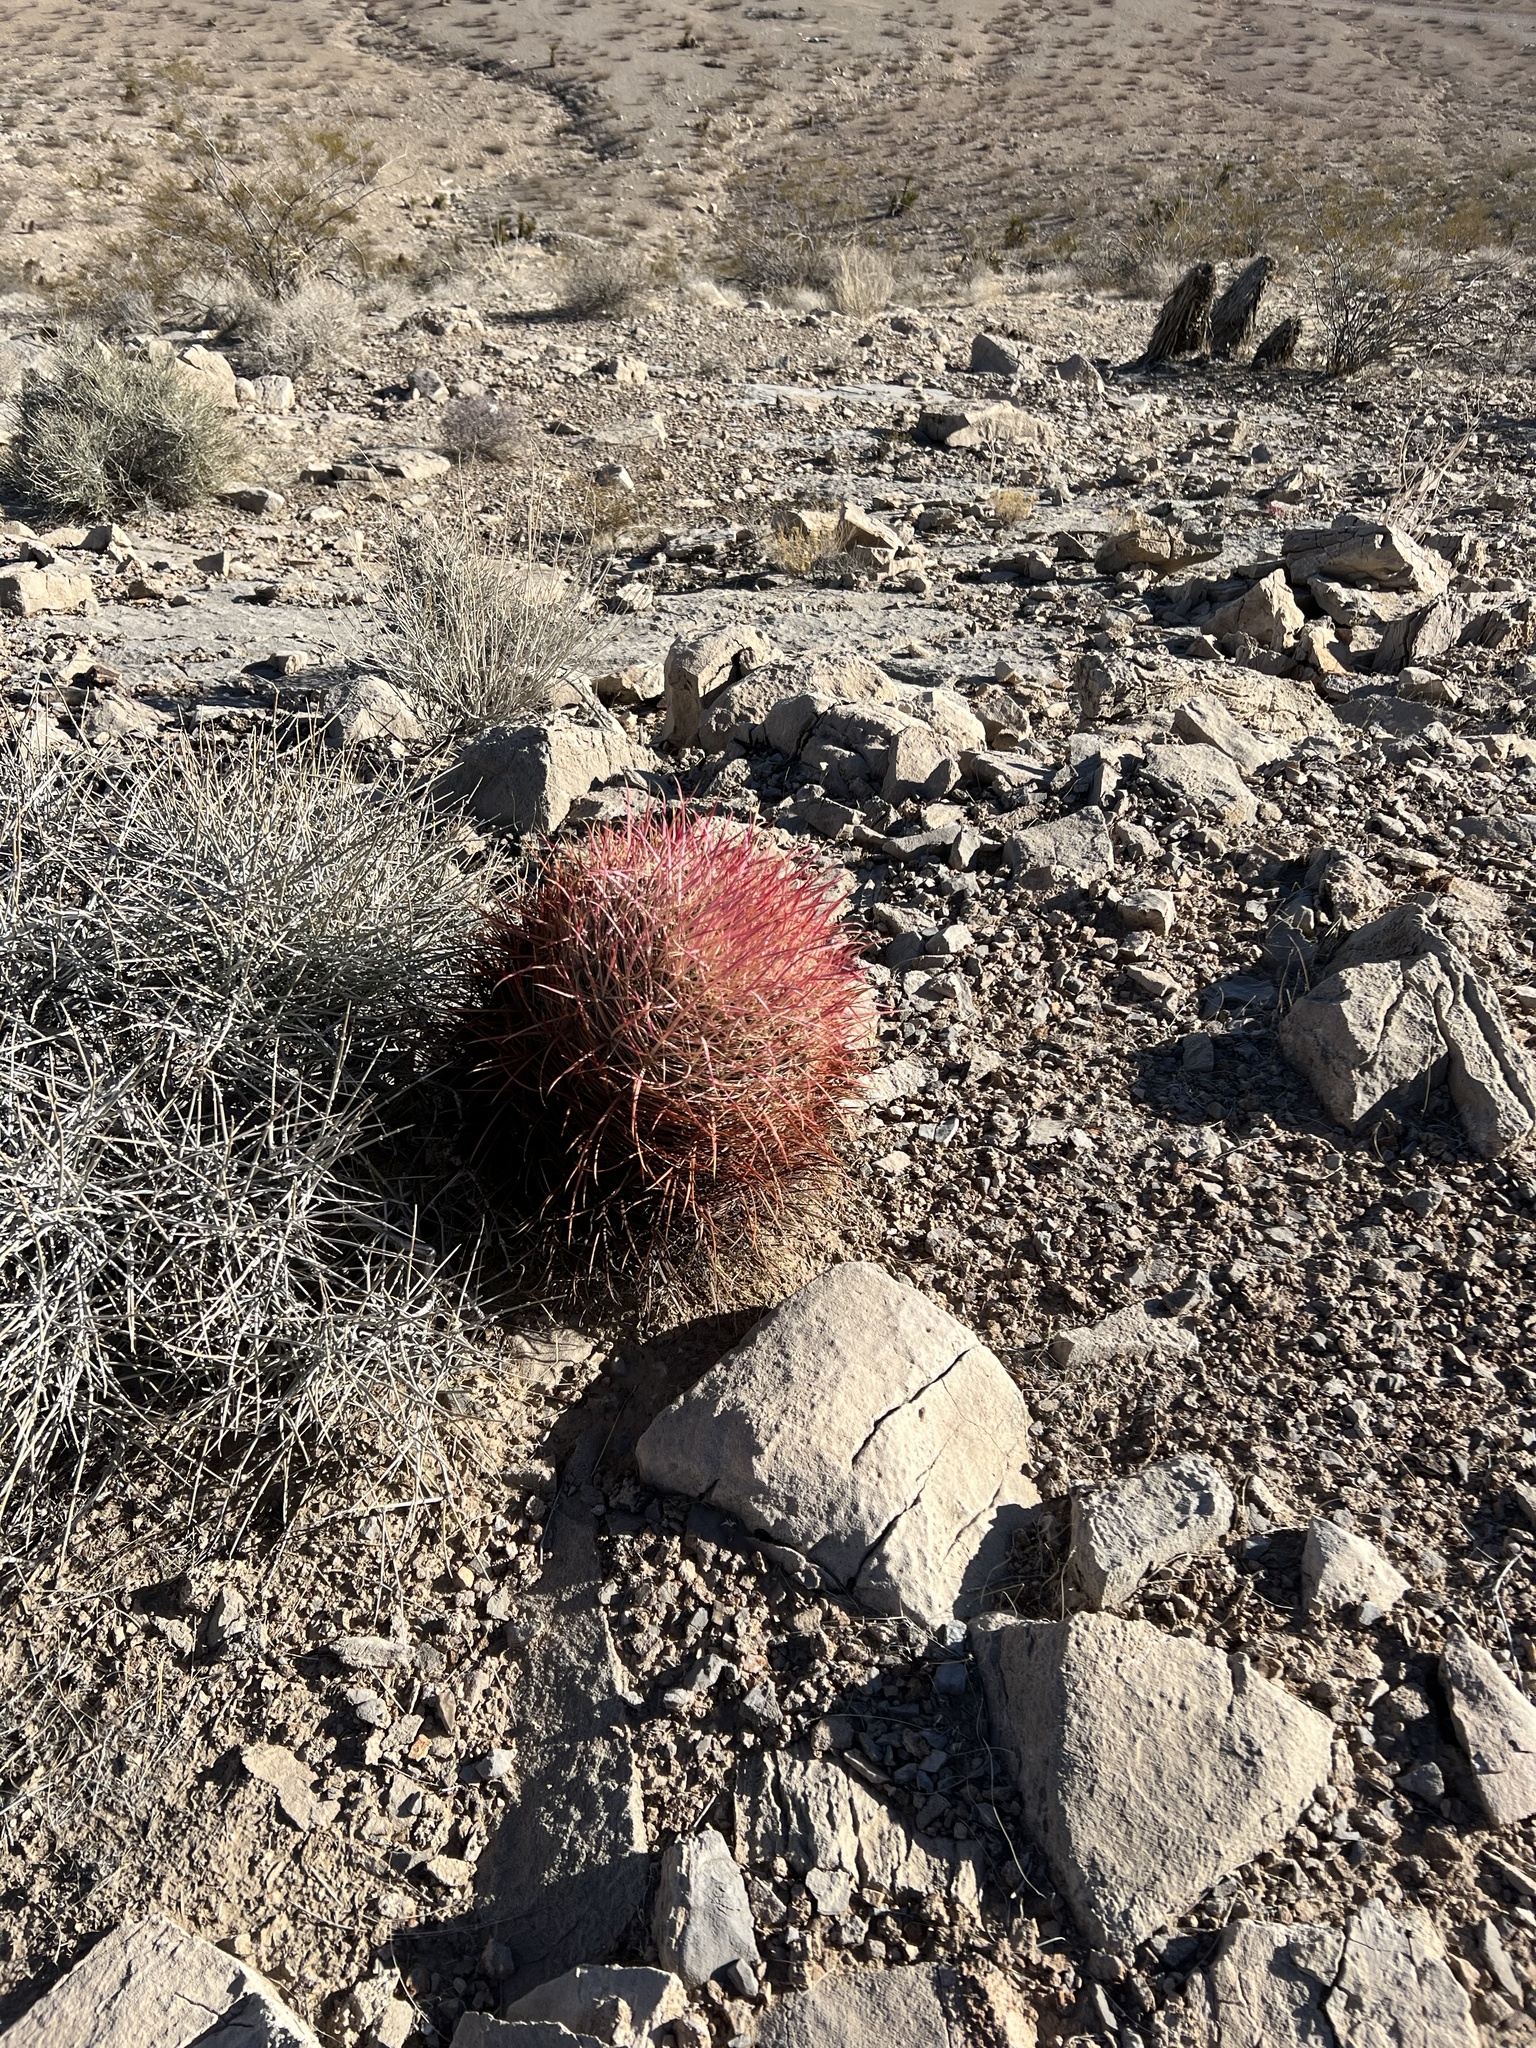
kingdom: Plantae
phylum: Tracheophyta
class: Magnoliopsida
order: Caryophyllales
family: Cactaceae
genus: Ferocactus
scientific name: Ferocactus cylindraceus
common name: California barrel cactus
